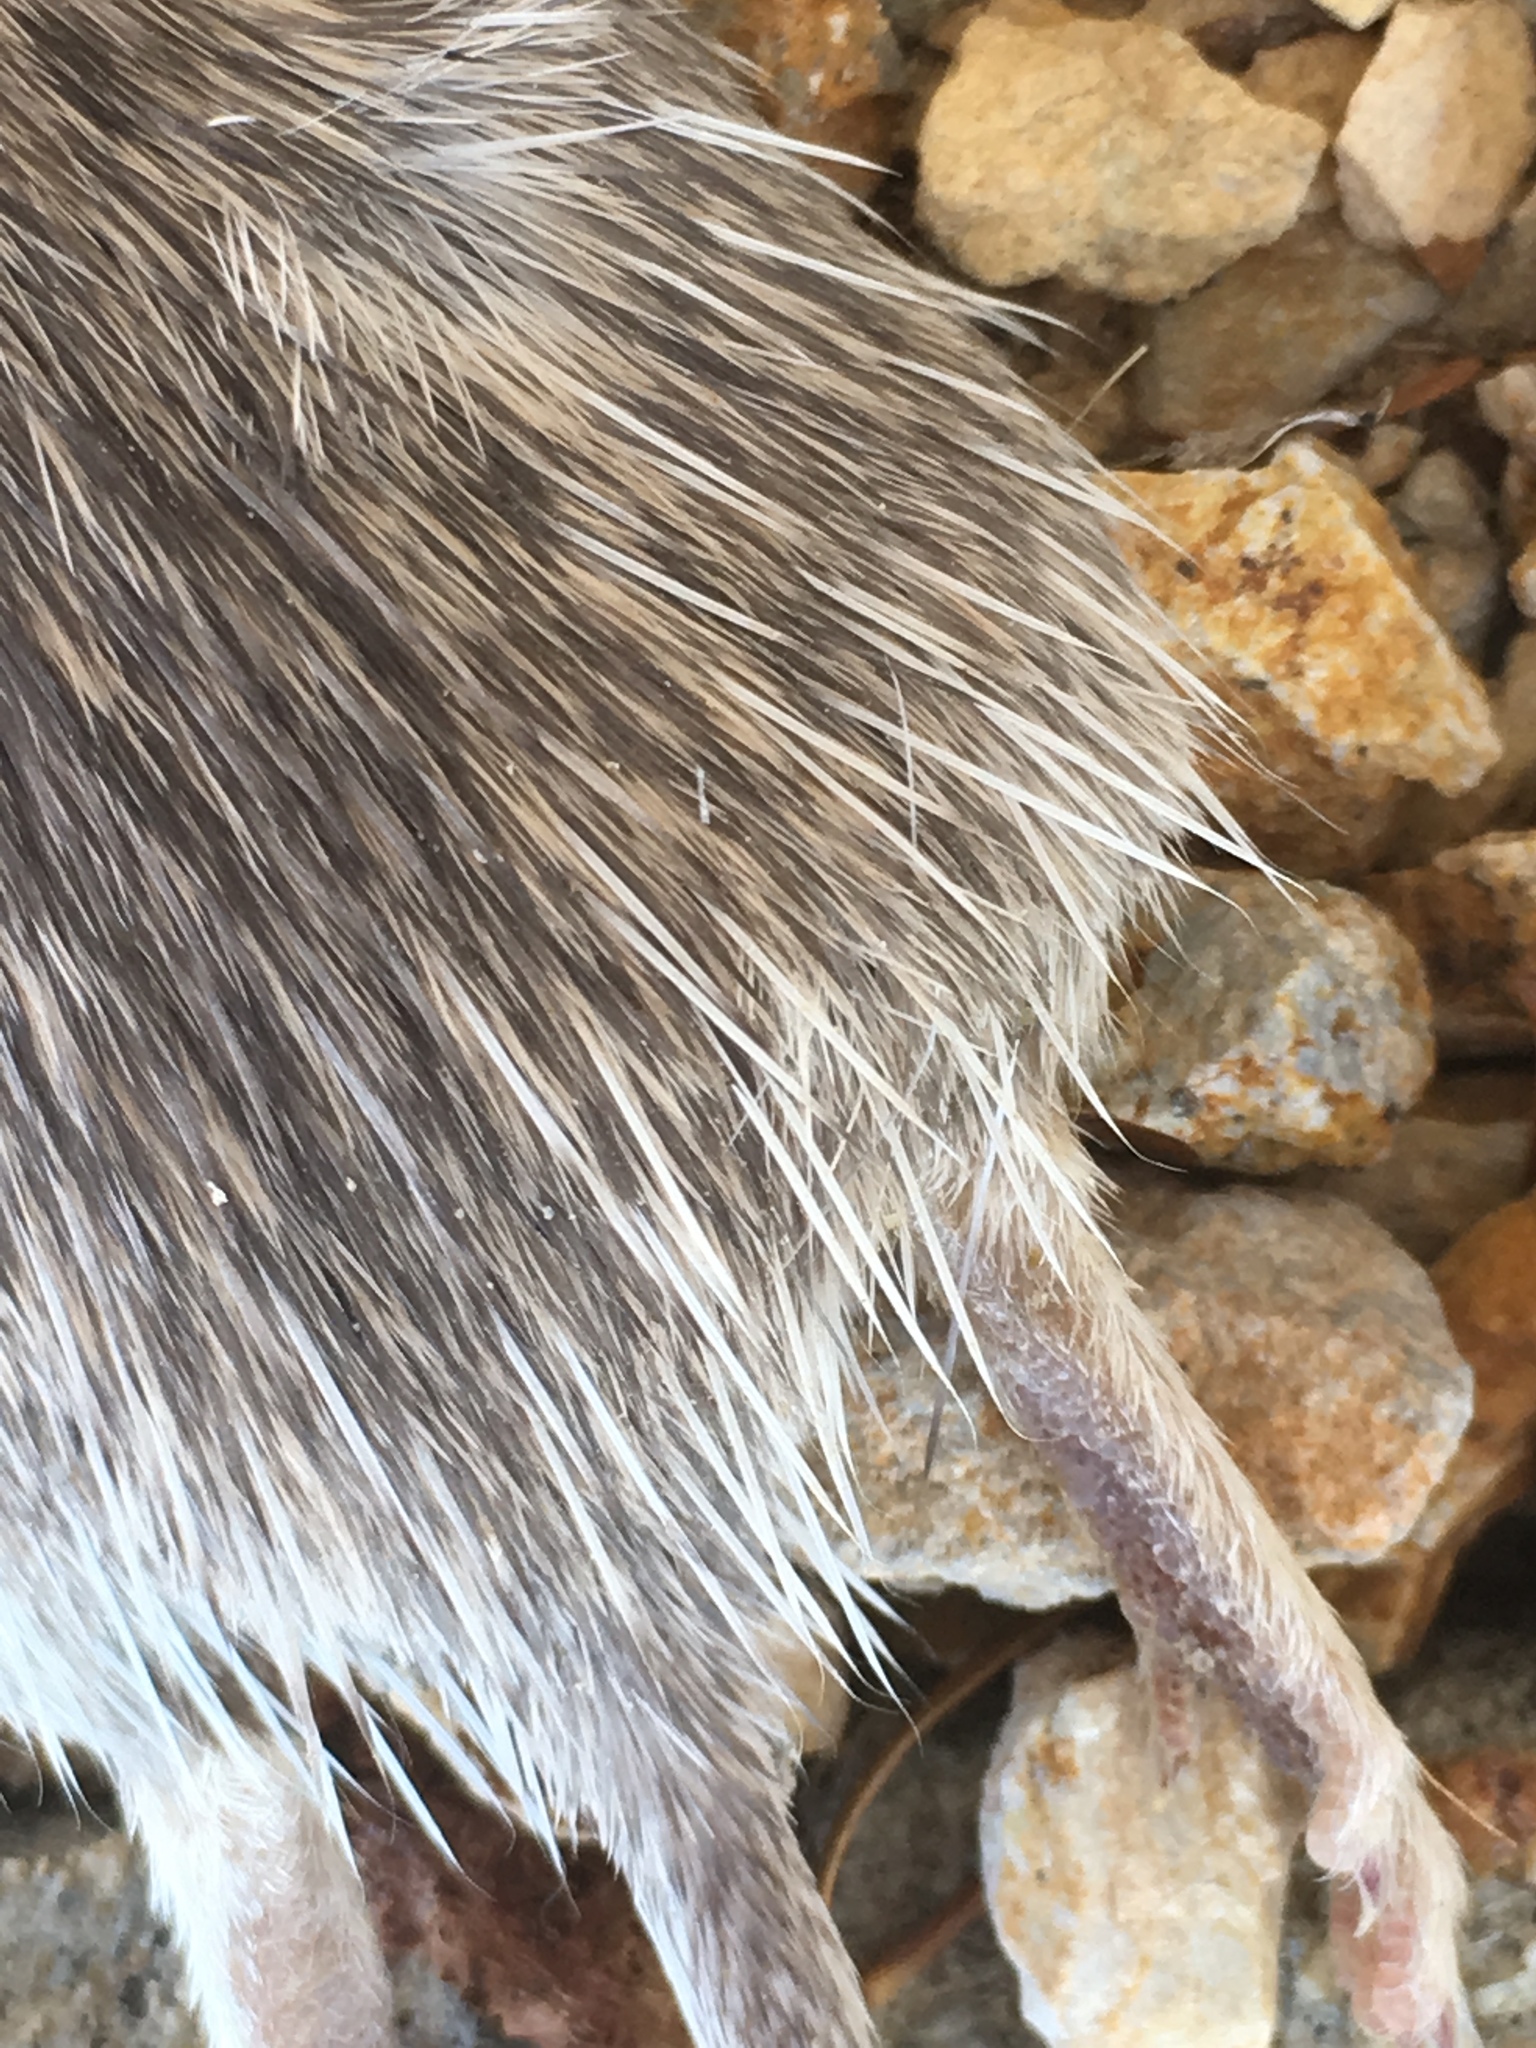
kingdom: Animalia
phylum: Chordata
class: Mammalia
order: Rodentia
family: Heteromyidae
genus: Chaetodipus
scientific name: Chaetodipus fallax
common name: San diego pocket mouse
